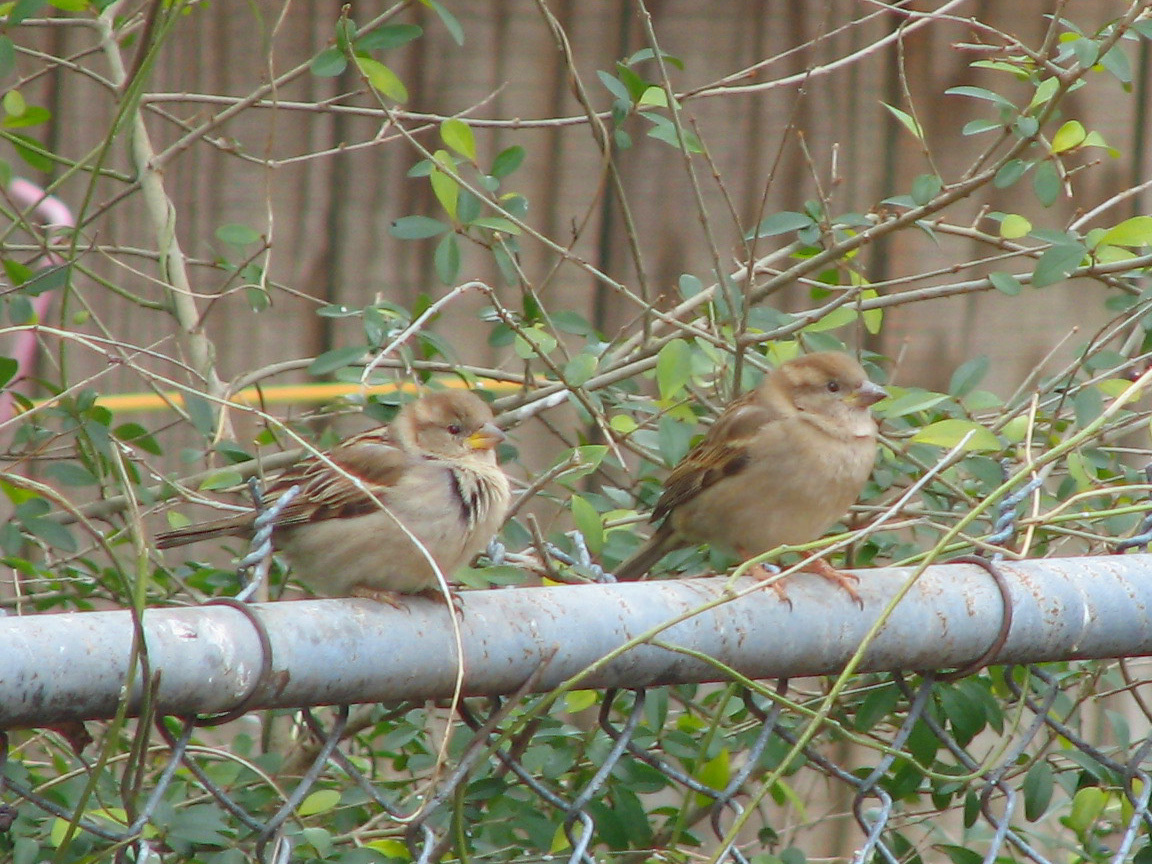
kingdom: Animalia
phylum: Chordata
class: Aves
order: Passeriformes
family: Passeridae
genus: Passer
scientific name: Passer domesticus
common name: House sparrow
